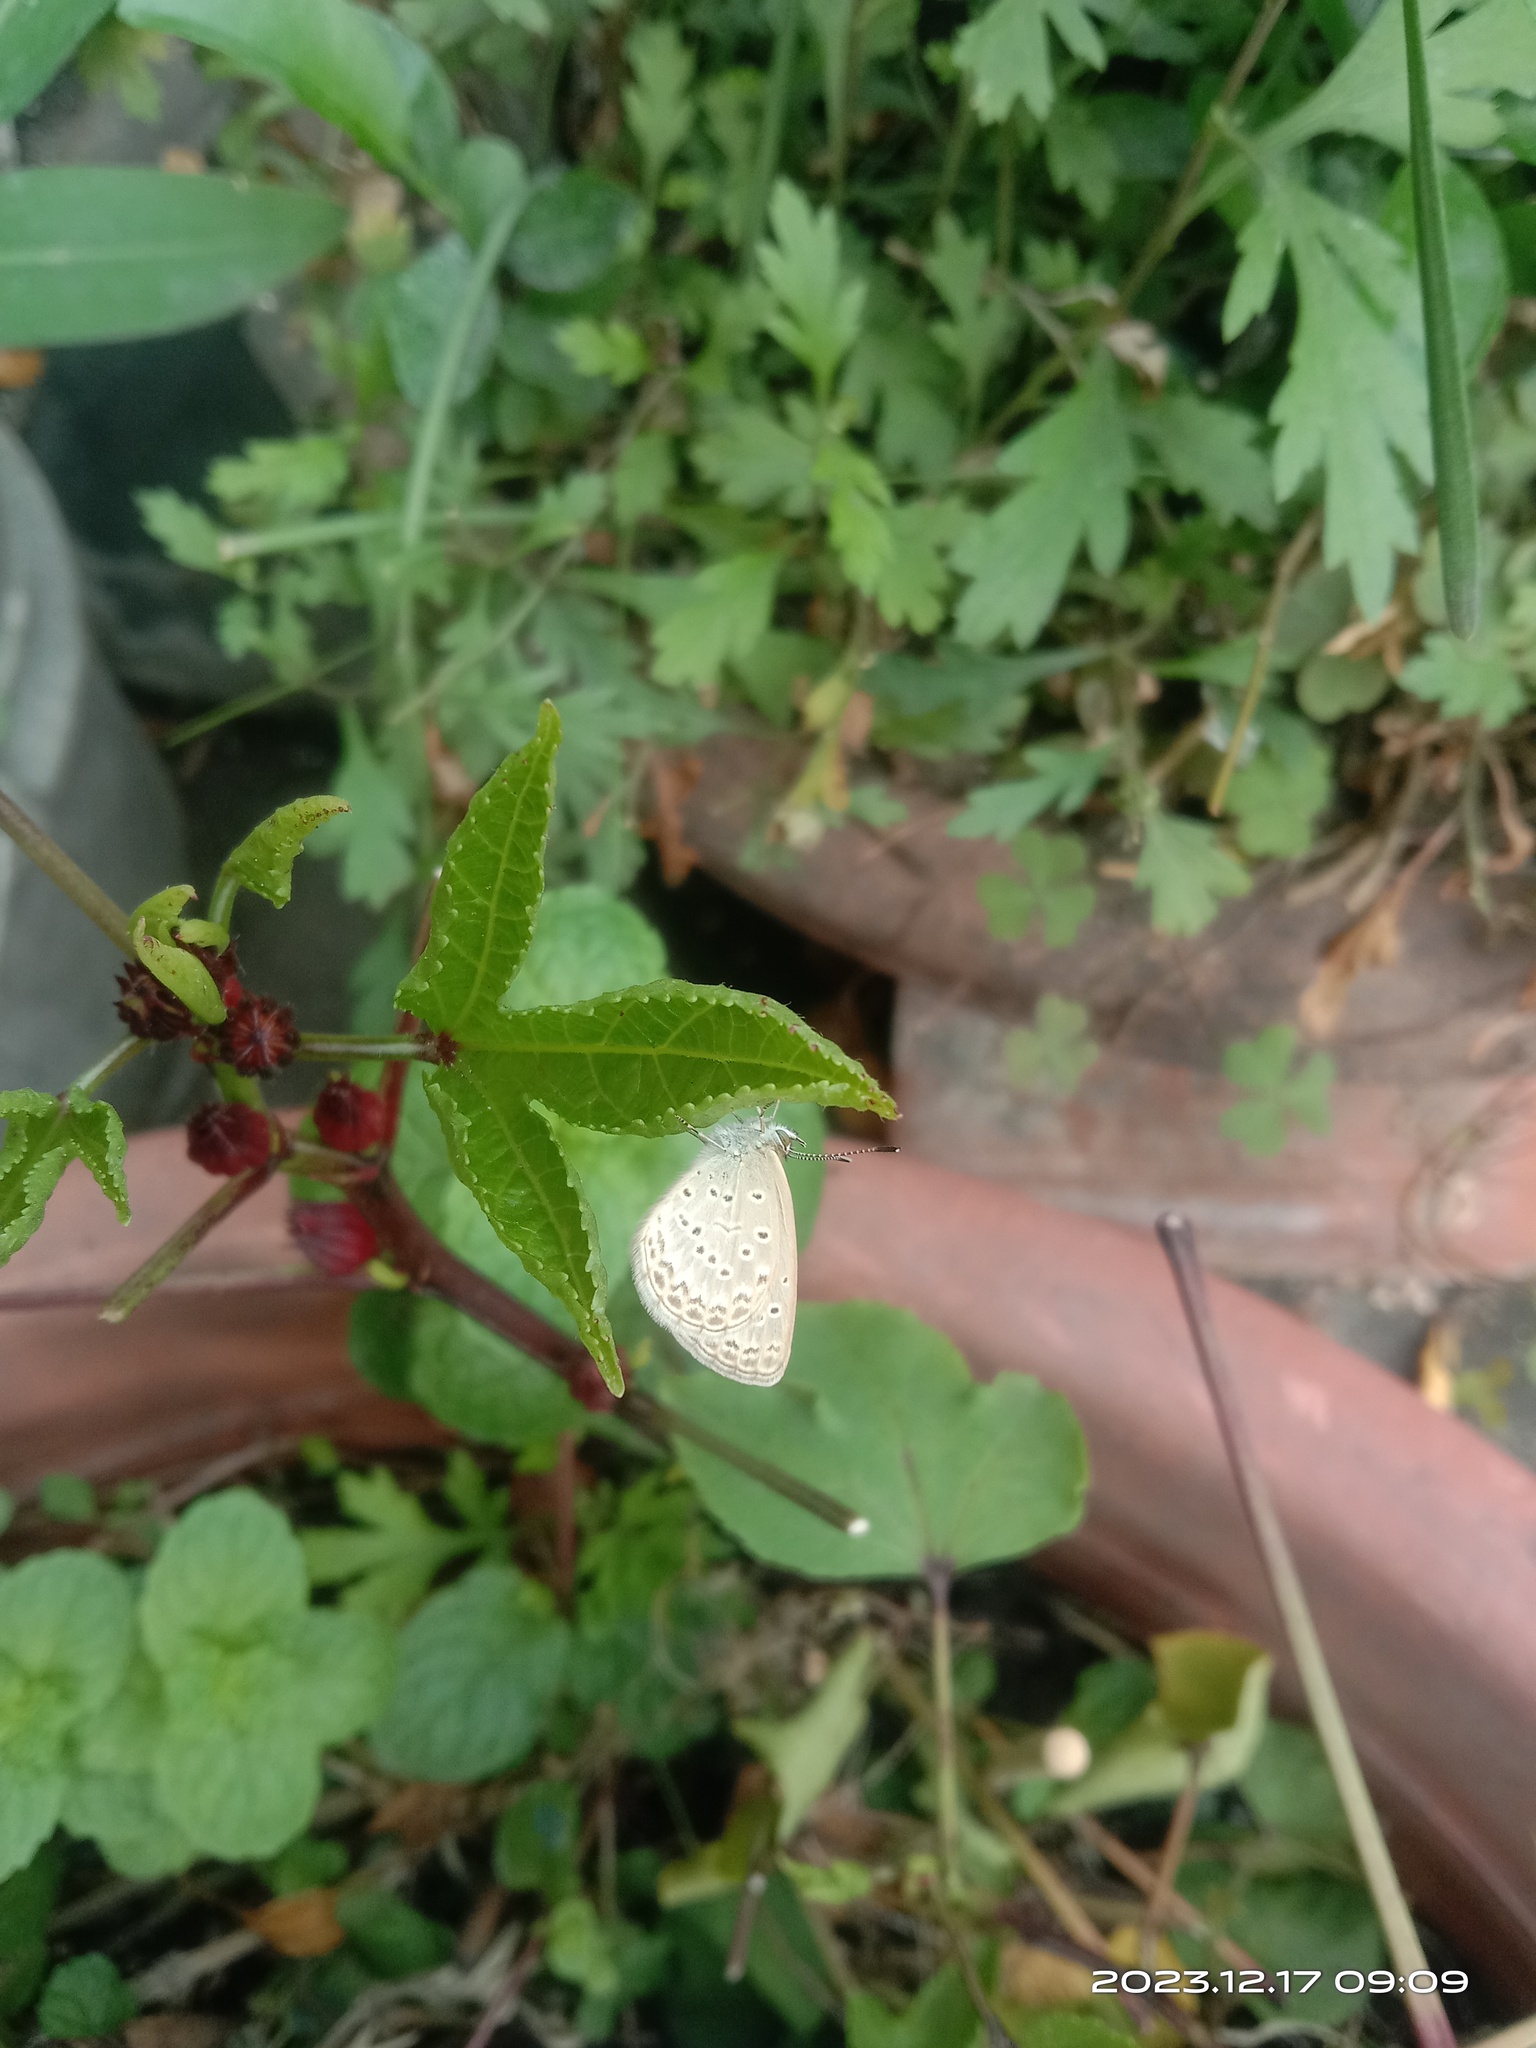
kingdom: Animalia
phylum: Arthropoda
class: Insecta
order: Lepidoptera
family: Lycaenidae
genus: Pseudozizeeria
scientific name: Pseudozizeeria maha
